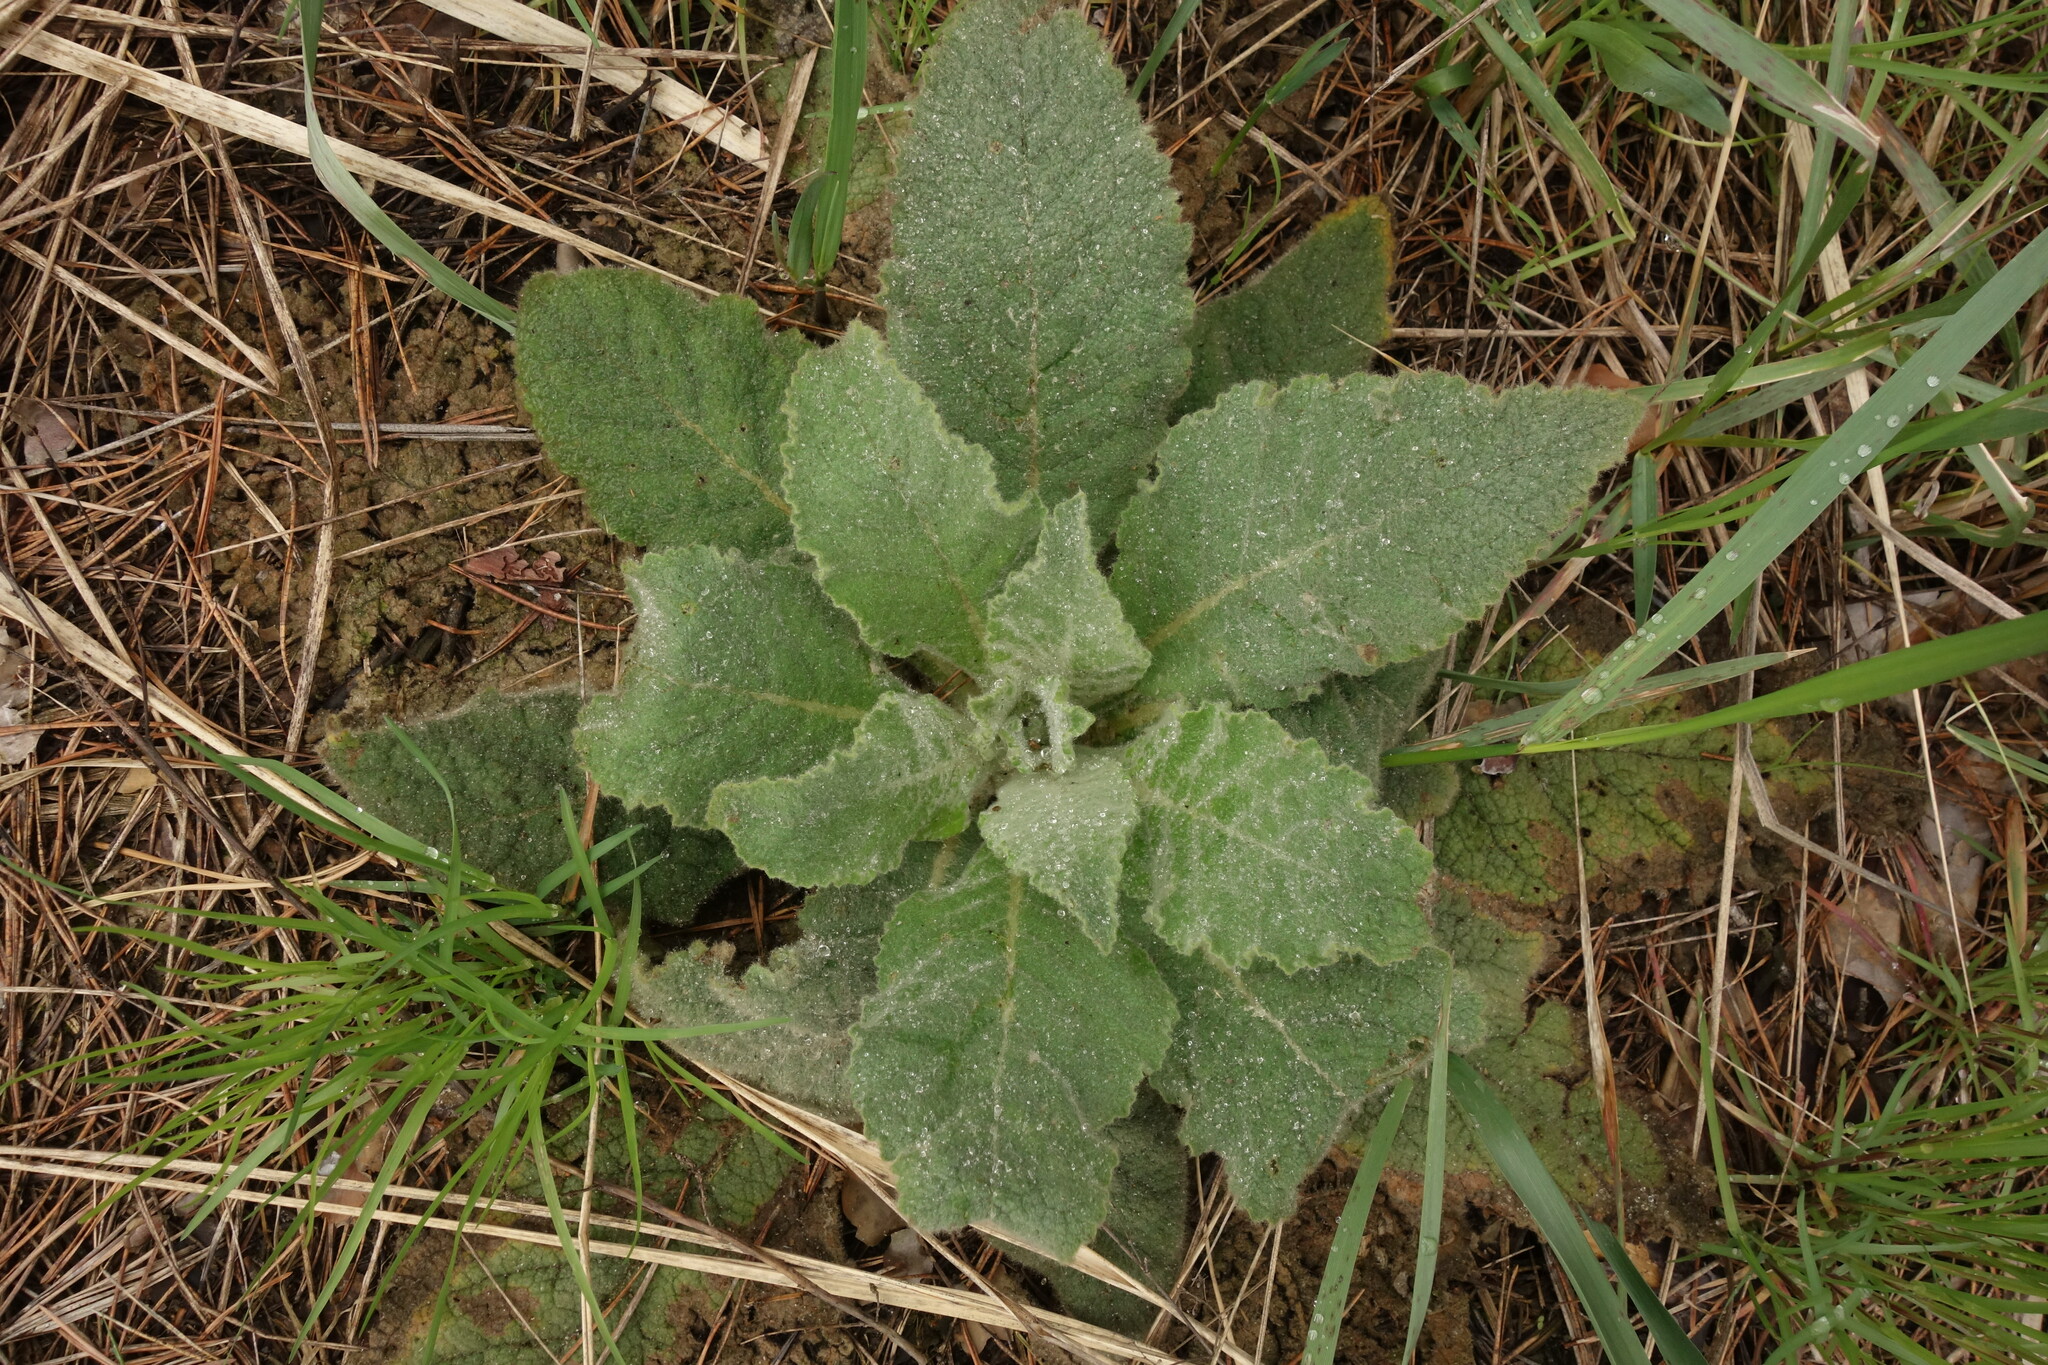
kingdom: Plantae
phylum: Tracheophyta
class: Magnoliopsida
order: Lamiales
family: Scrophulariaceae
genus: Verbascum
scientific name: Verbascum thapsus
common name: Common mullein
